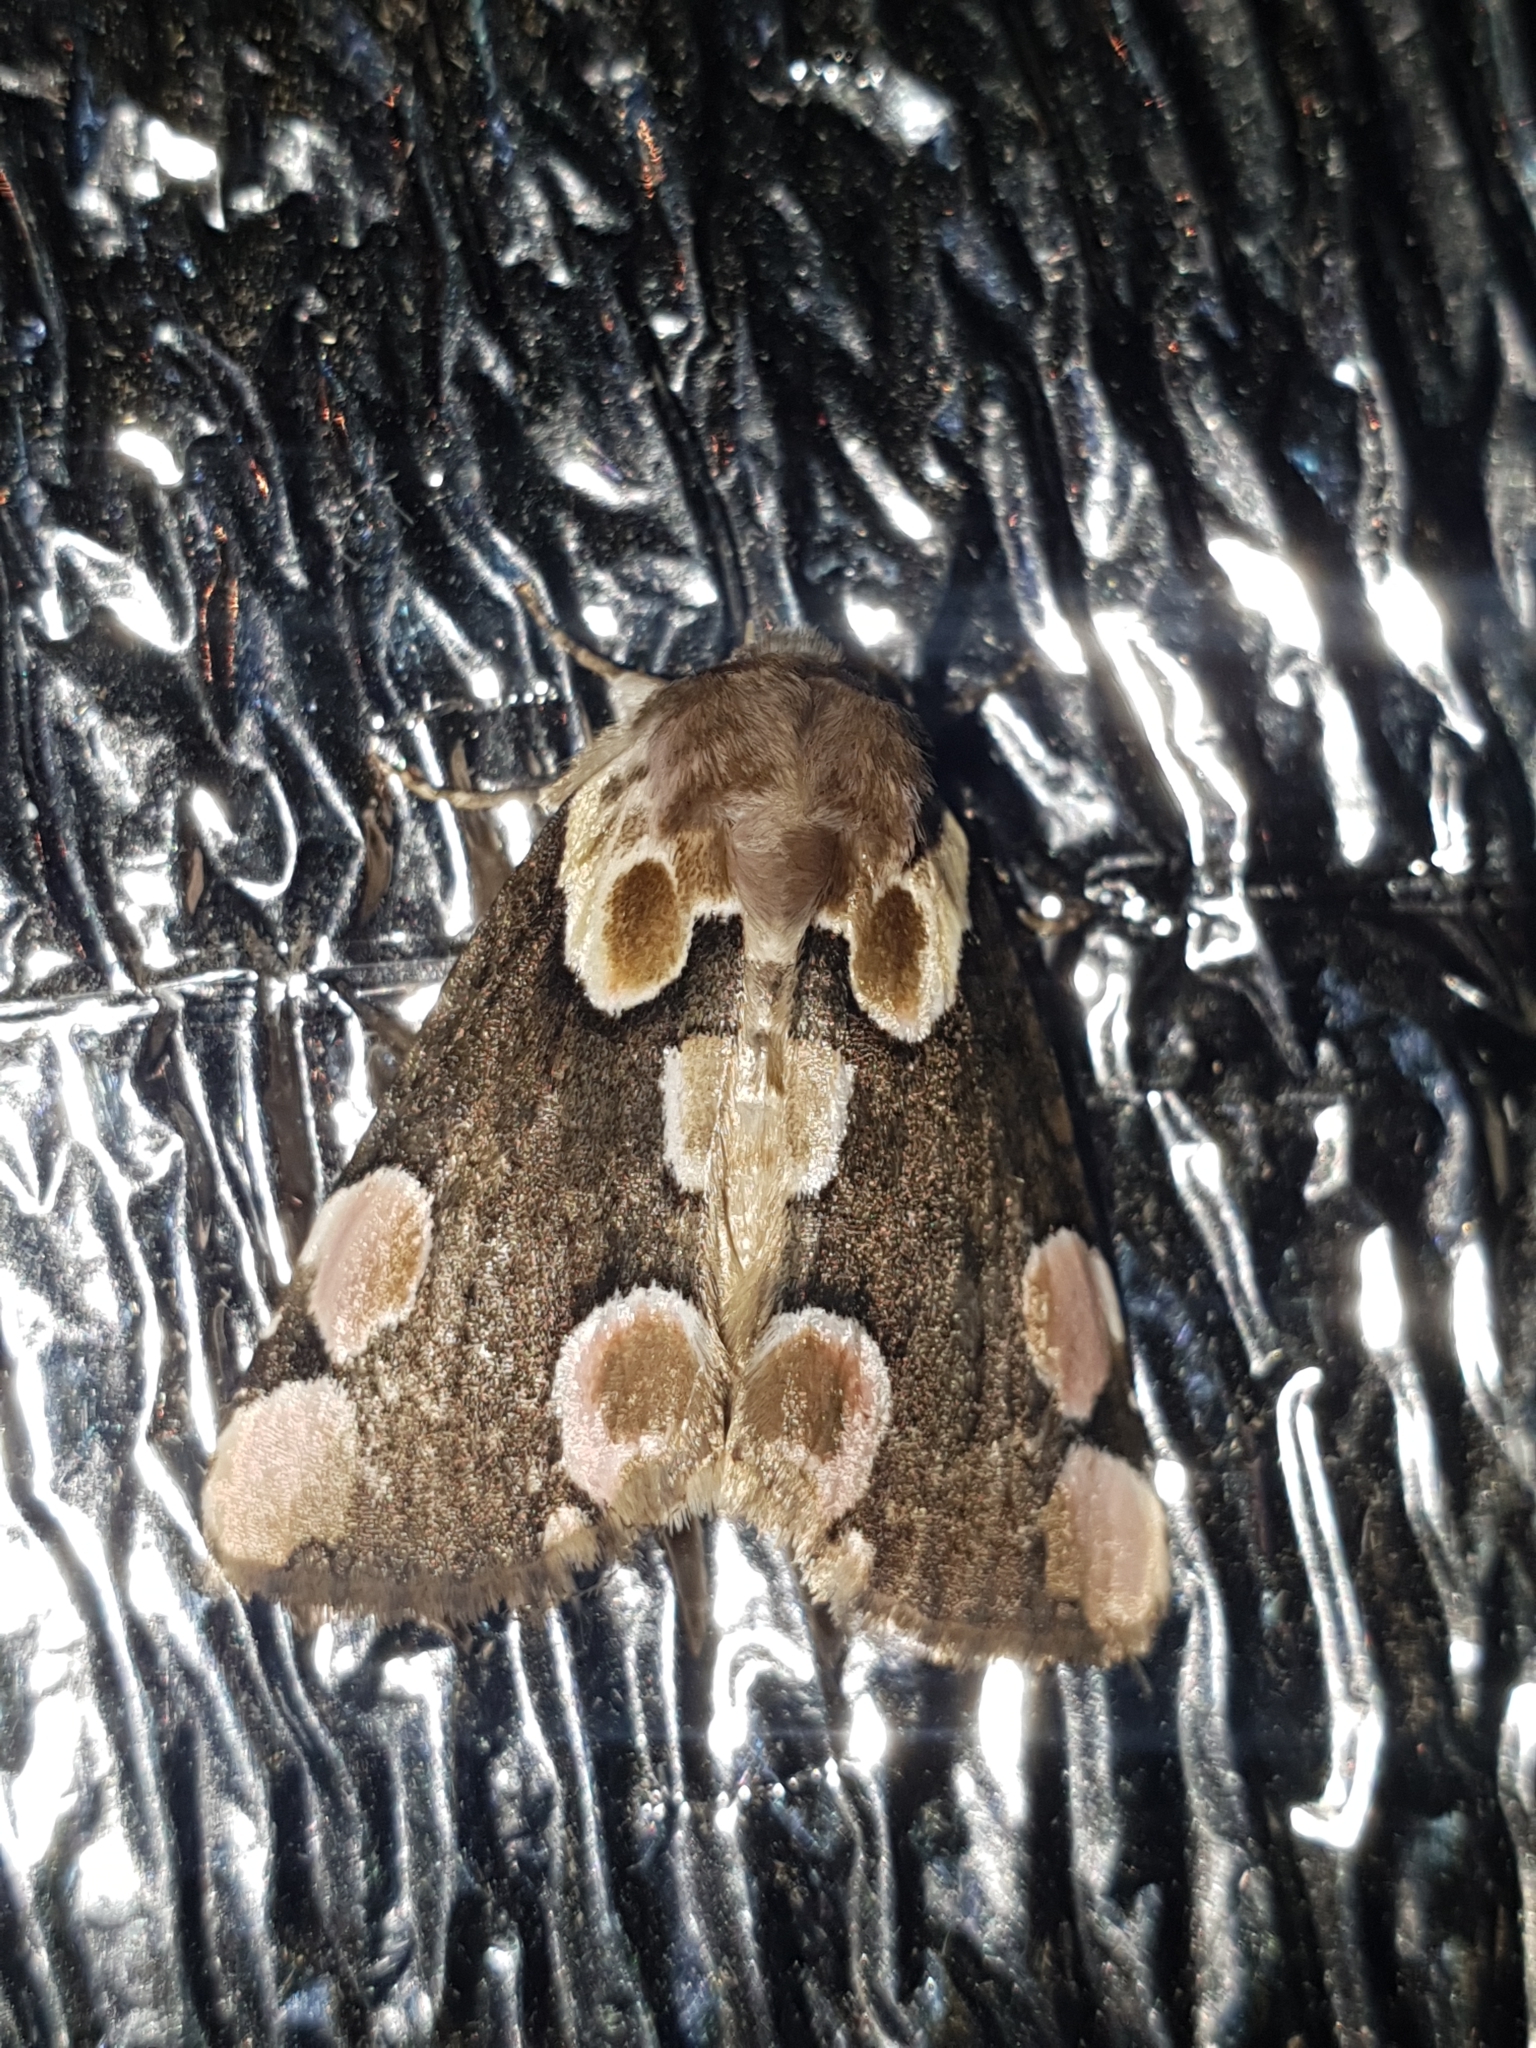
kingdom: Animalia
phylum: Arthropoda
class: Insecta
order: Lepidoptera
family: Drepanidae
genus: Thyatira
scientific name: Thyatira batis
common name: Peach blossom
